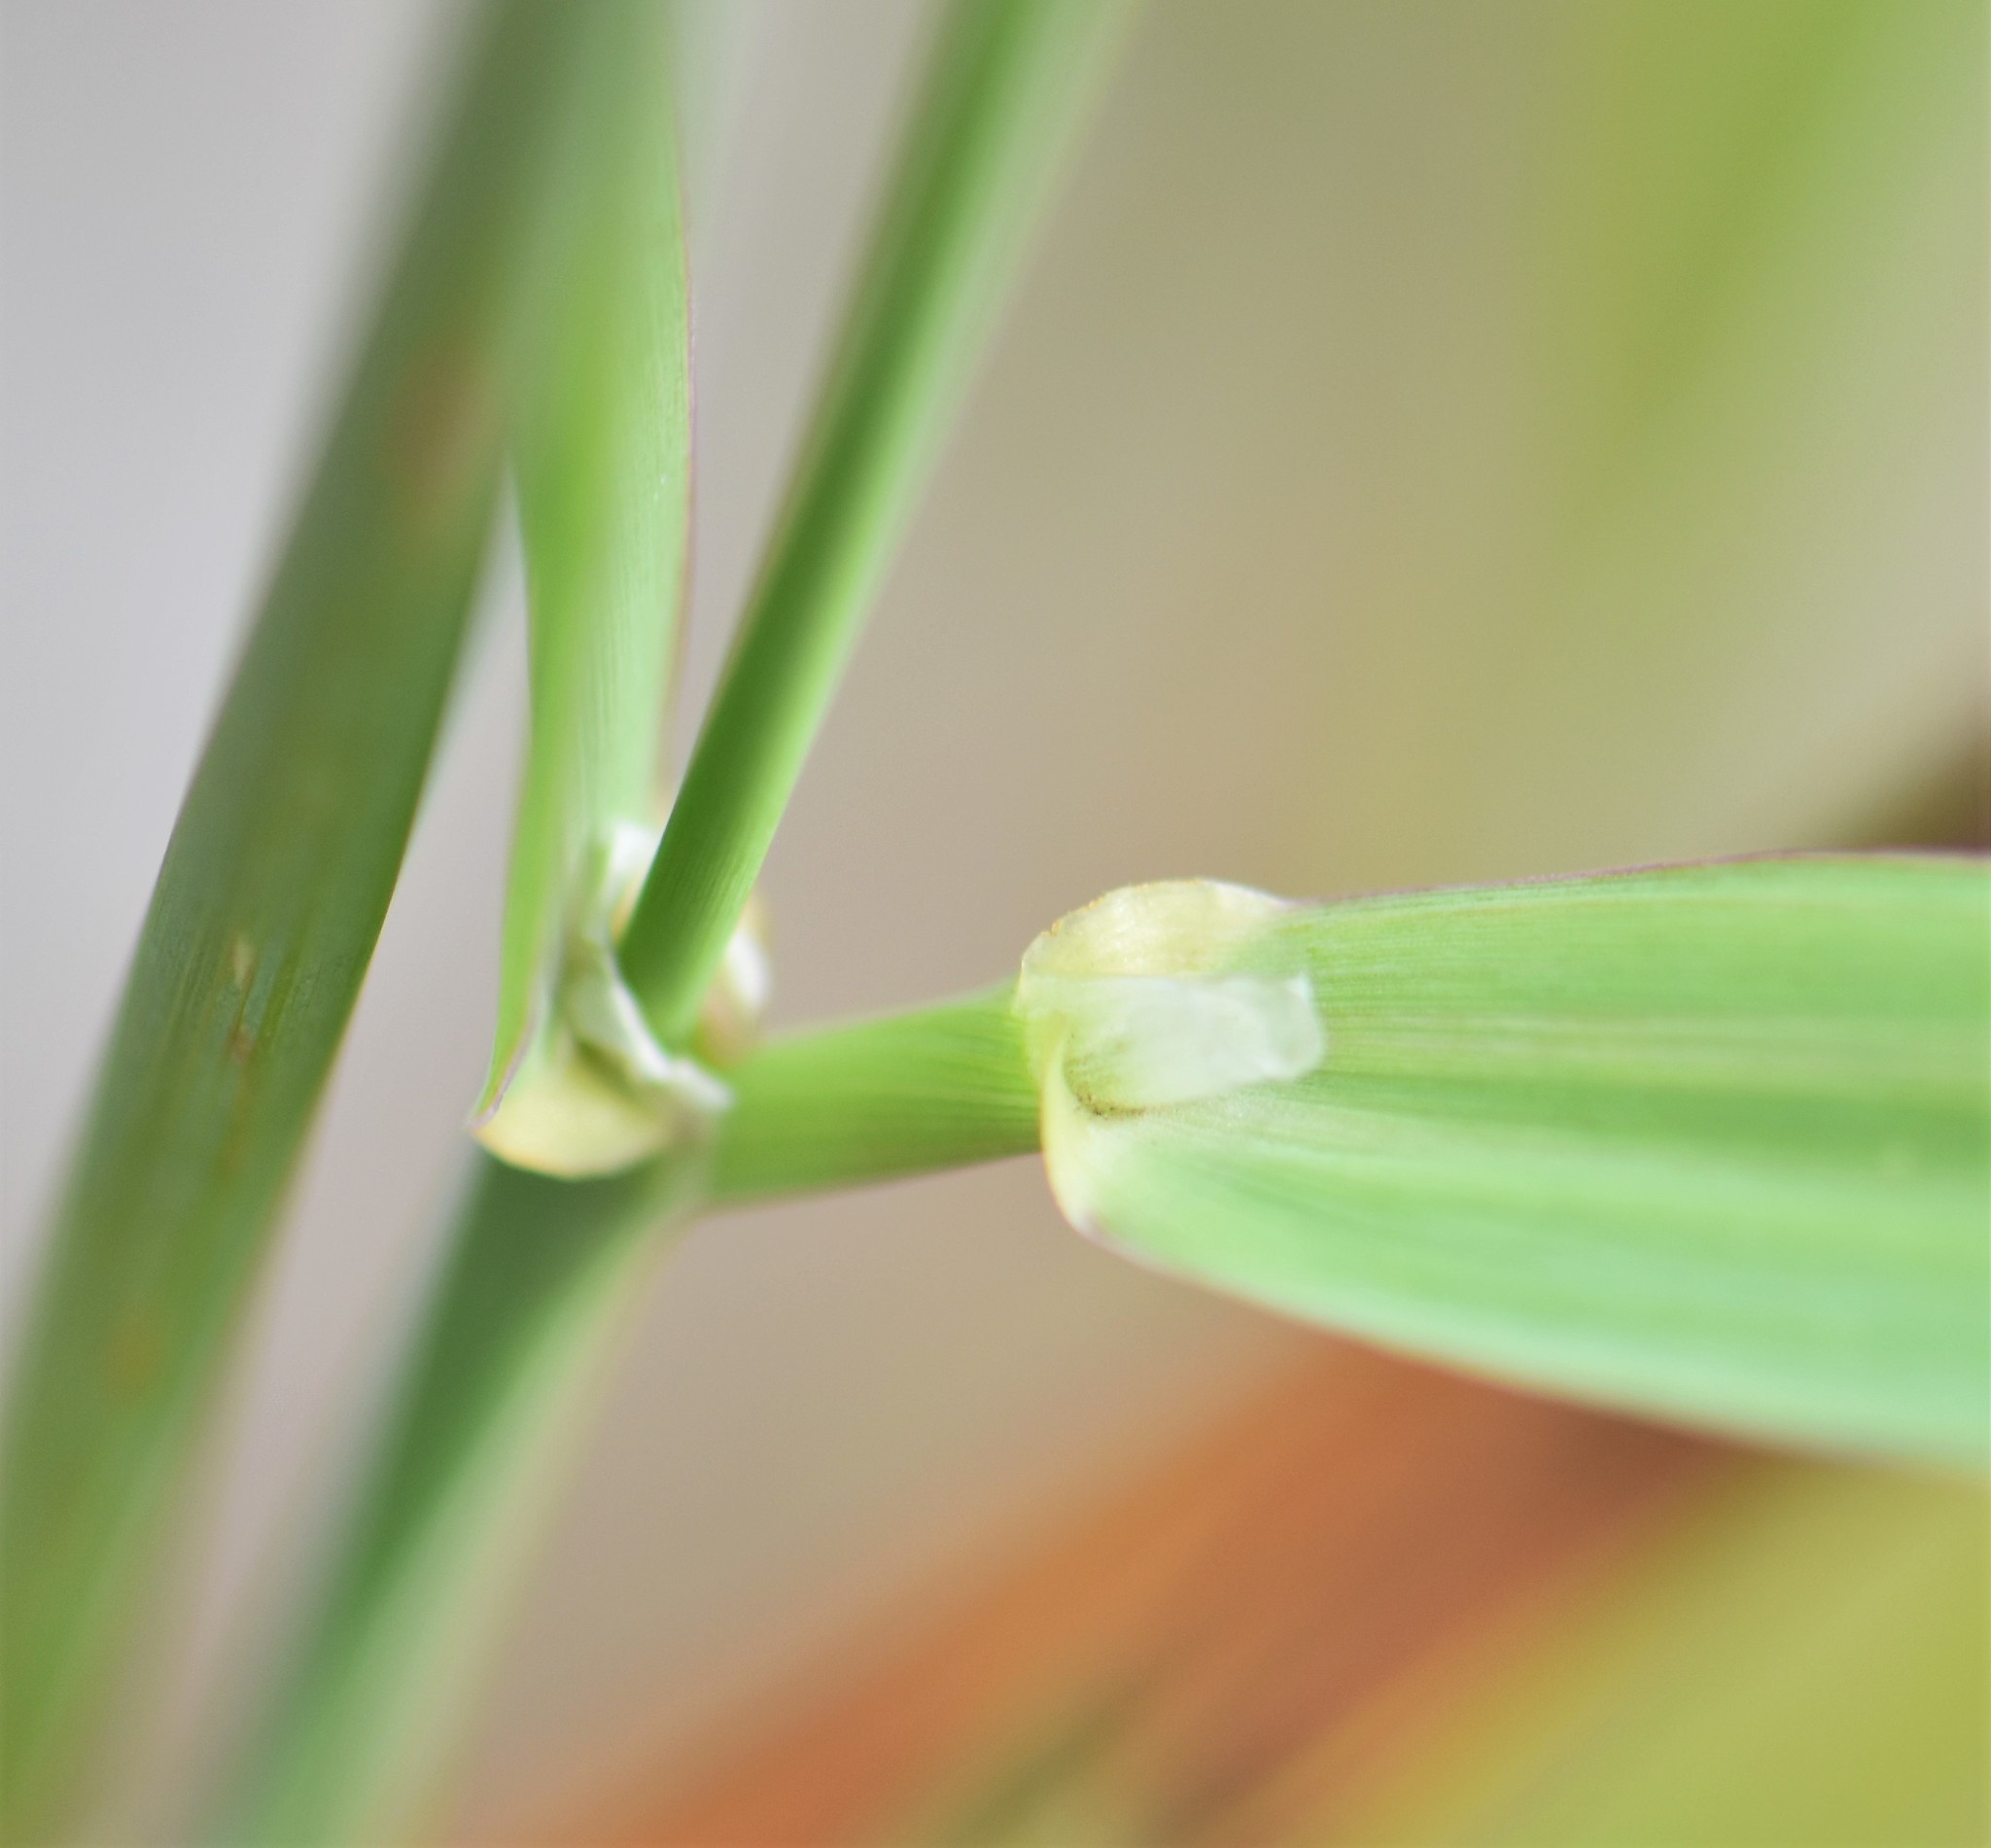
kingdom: Plantae
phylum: Tracheophyta
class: Liliopsida
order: Poales
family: Poaceae
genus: Phalaris
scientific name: Phalaris arundinacea
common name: Reed canary-grass
